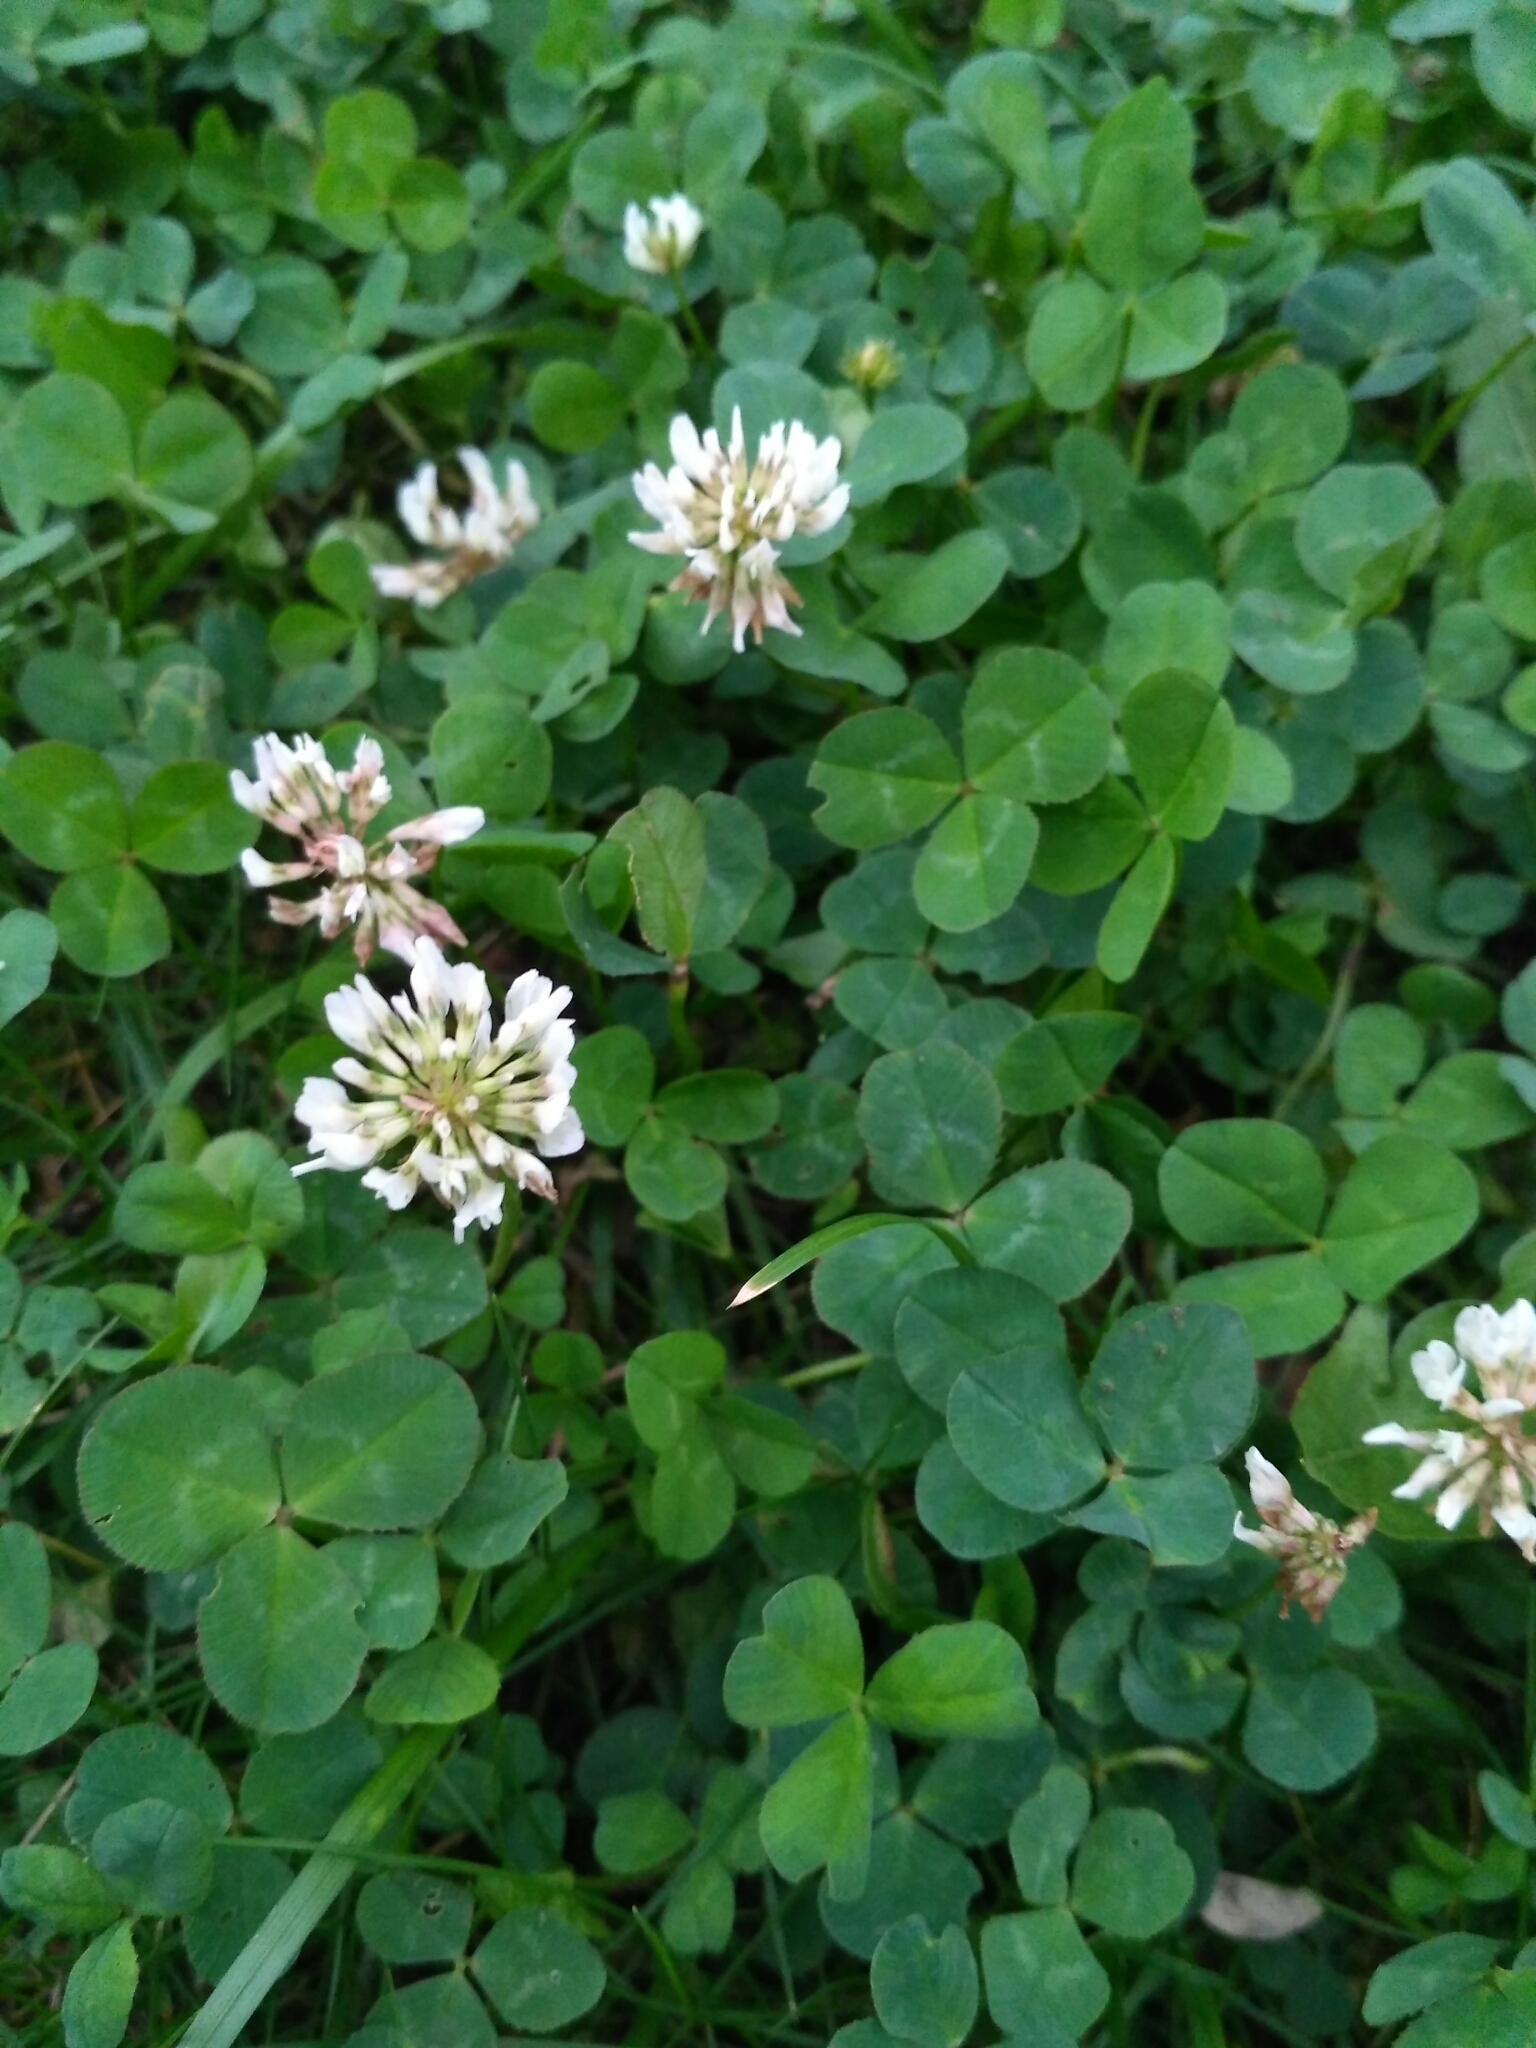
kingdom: Plantae
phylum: Tracheophyta
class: Magnoliopsida
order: Fabales
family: Fabaceae
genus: Trifolium
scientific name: Trifolium repens
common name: White clover
